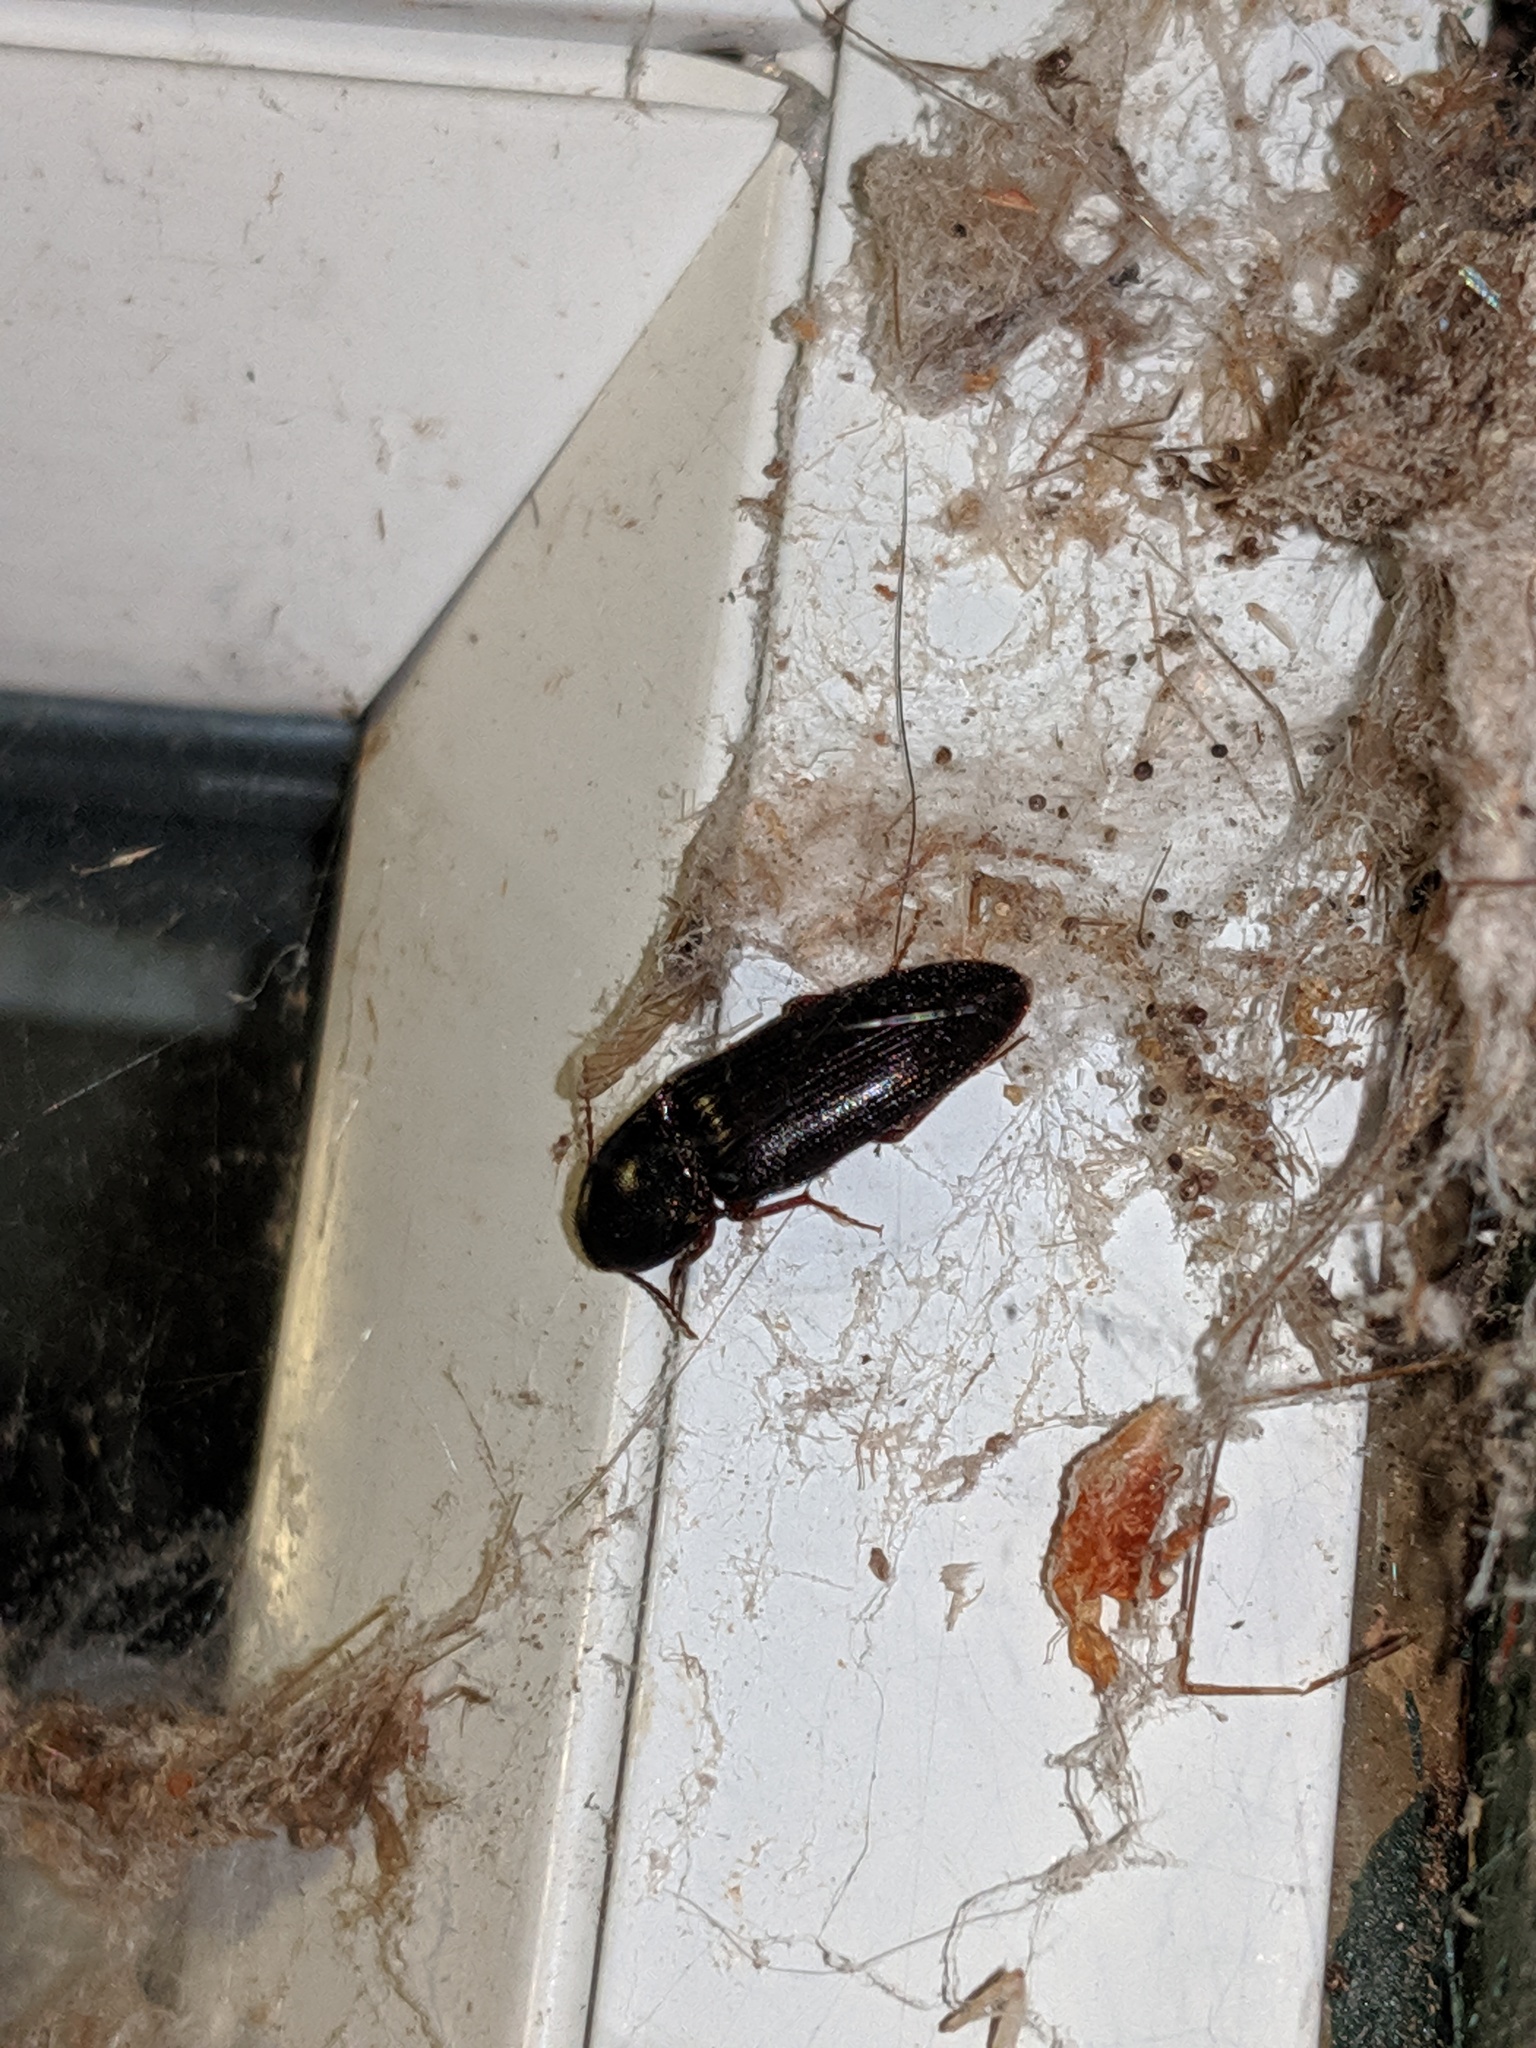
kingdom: Animalia
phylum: Arthropoda
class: Insecta
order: Coleoptera
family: Elateridae
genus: Ampedus
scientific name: Ampedus rhodopus
